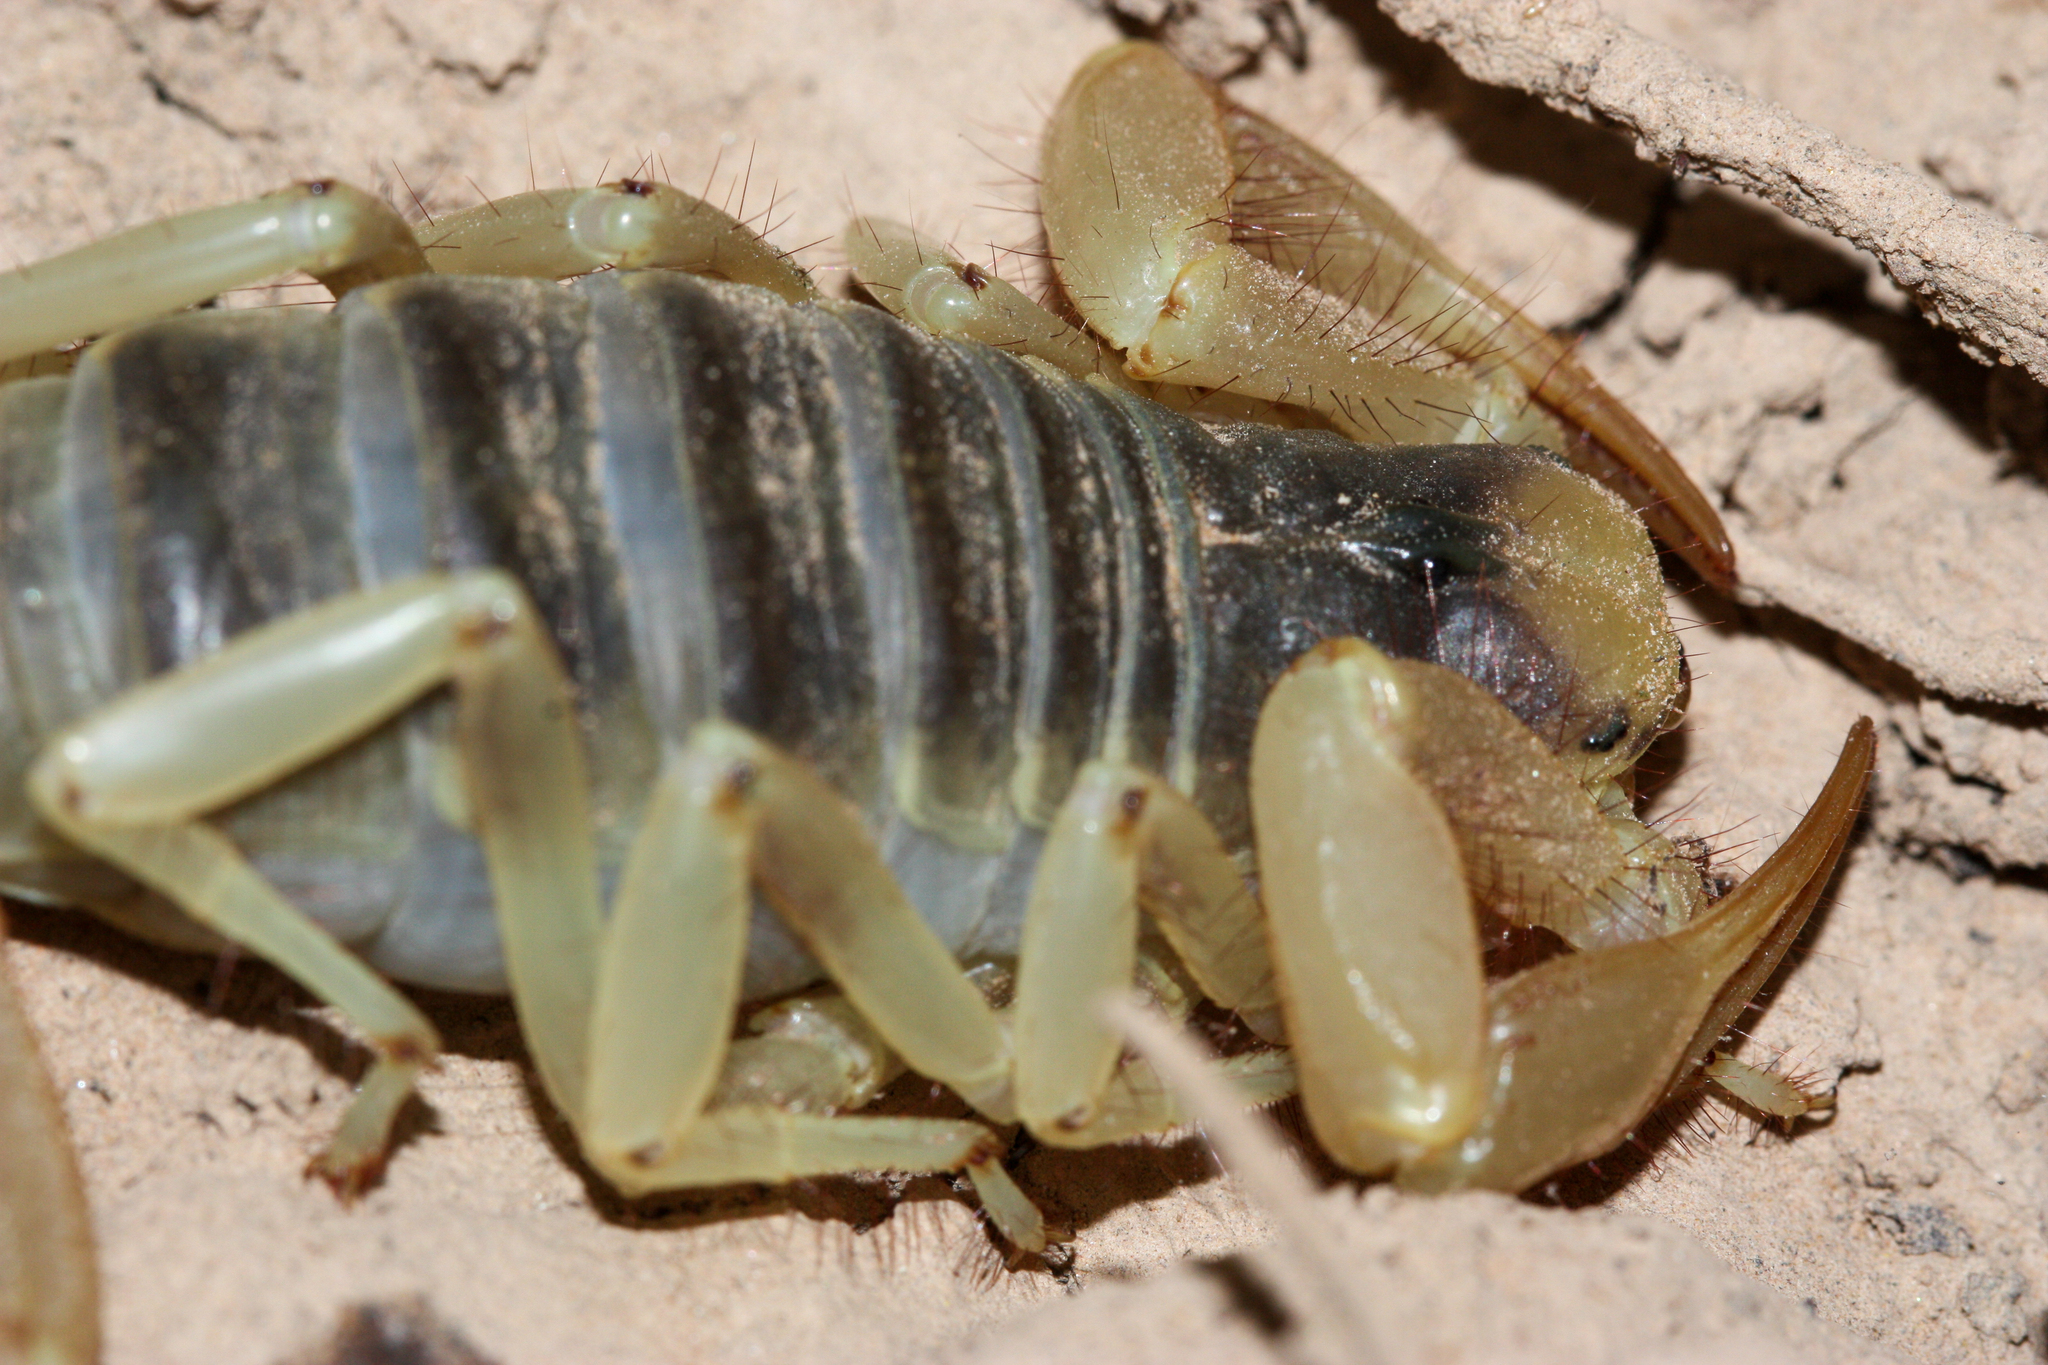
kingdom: Animalia
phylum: Arthropoda
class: Arachnida
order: Scorpiones
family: Hadruridae
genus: Hadrurus
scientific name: Hadrurus arizonensis
